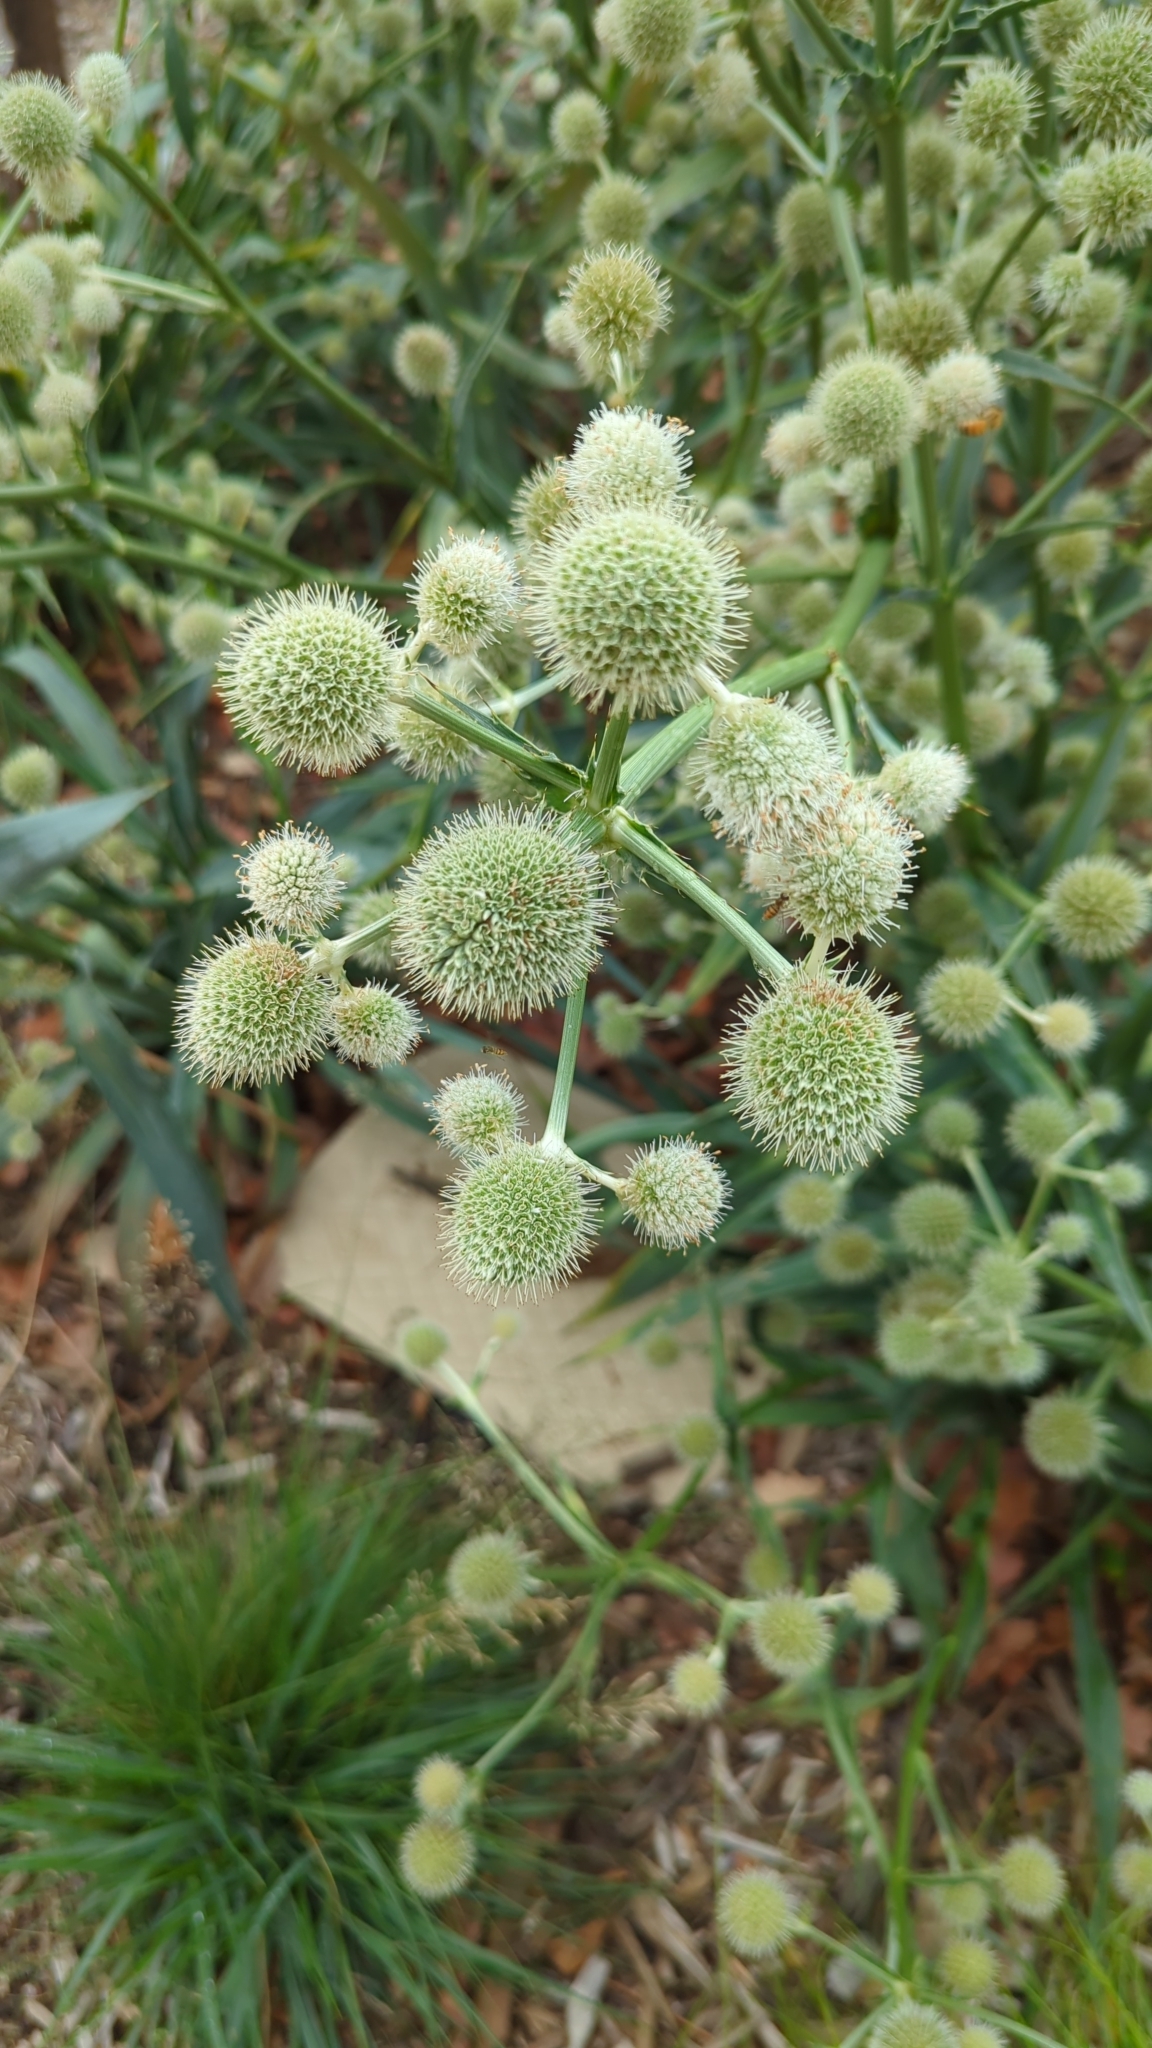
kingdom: Plantae
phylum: Tracheophyta
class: Magnoliopsida
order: Apiales
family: Apiaceae
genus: Eryngium
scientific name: Eryngium yuccifolium
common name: Button eryngo
